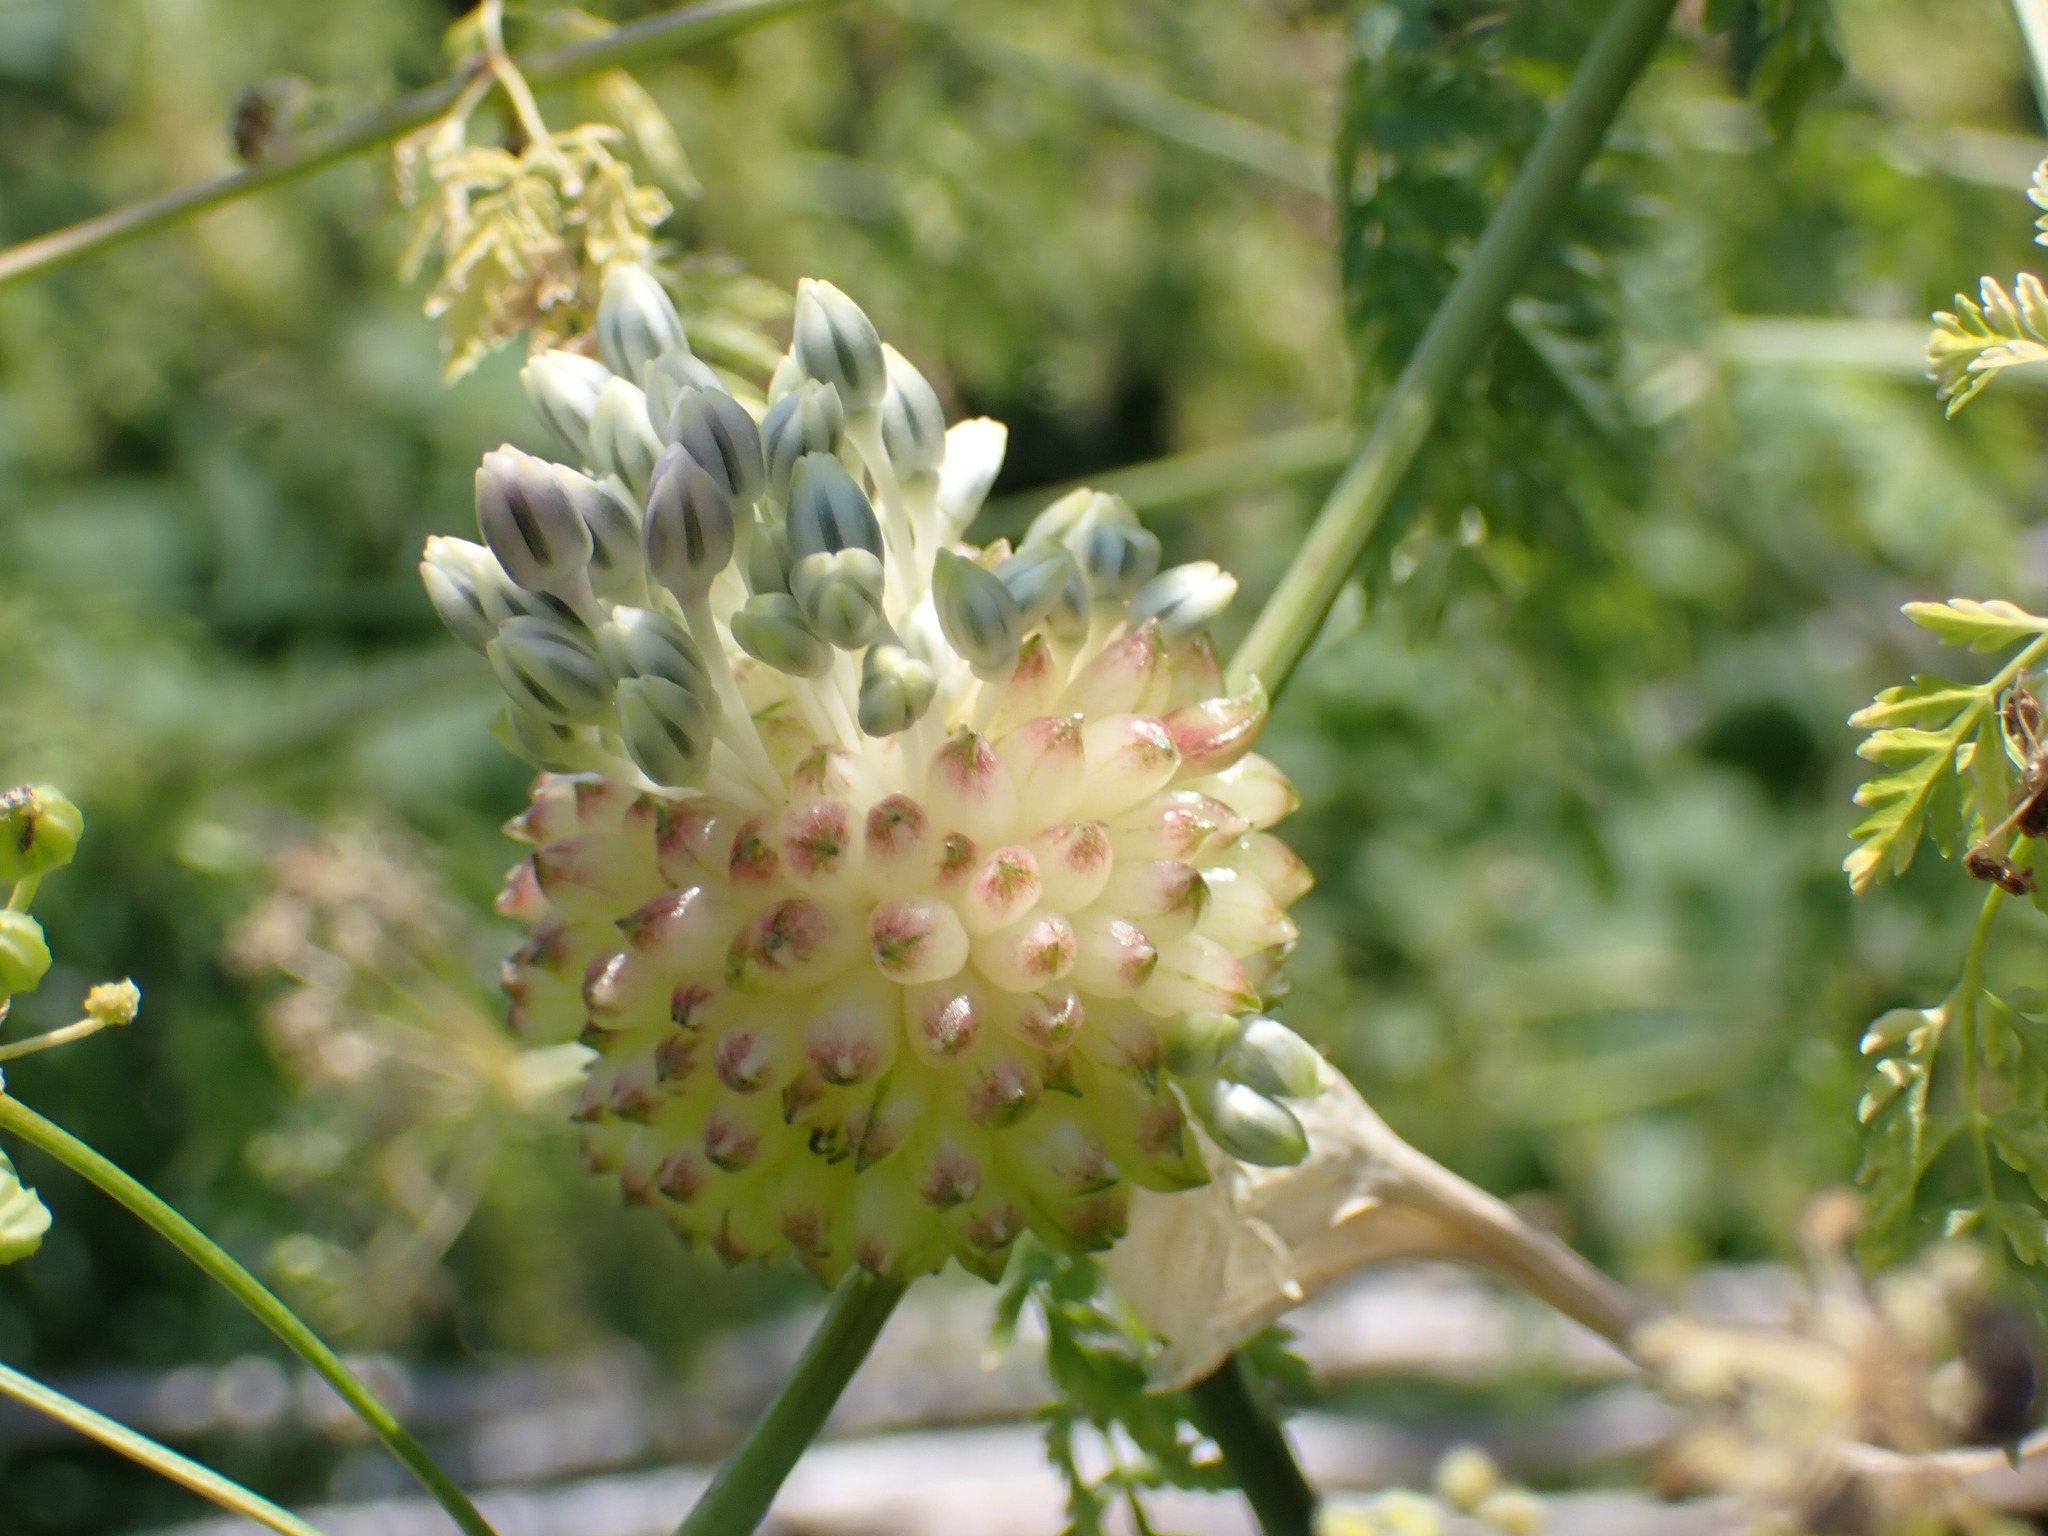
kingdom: Plantae
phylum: Tracheophyta
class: Liliopsida
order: Asparagales
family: Amaryllidaceae
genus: Allium
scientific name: Allium vineale
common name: Crow garlic
